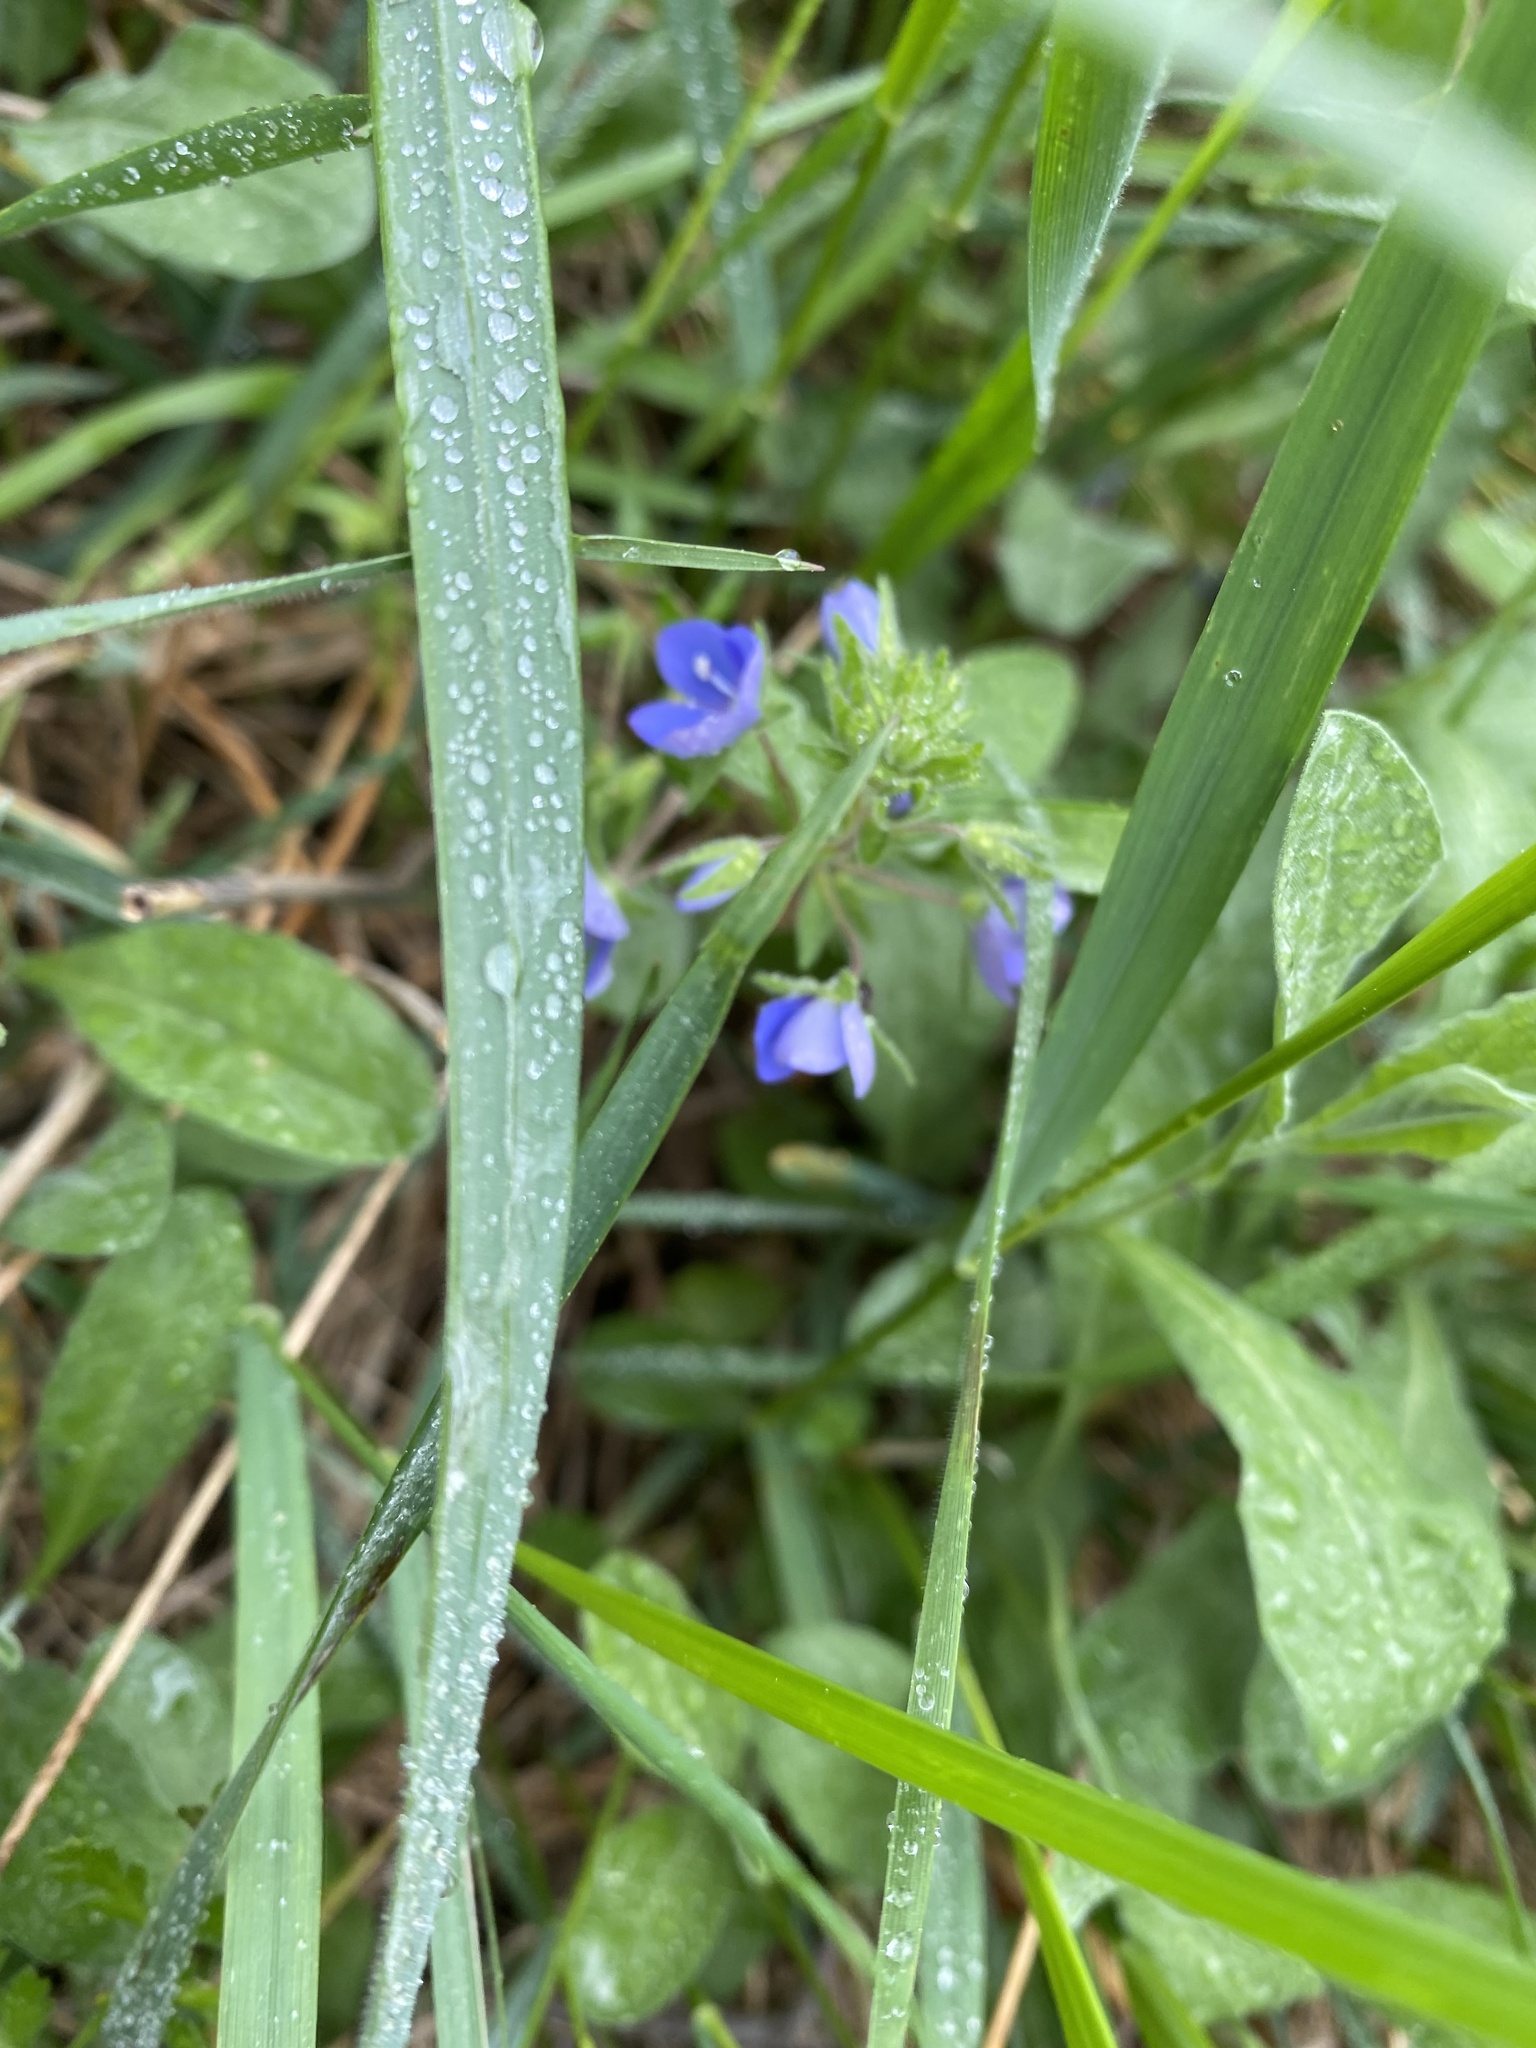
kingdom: Plantae
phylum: Tracheophyta
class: Magnoliopsida
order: Lamiales
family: Plantaginaceae
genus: Veronica
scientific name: Veronica
